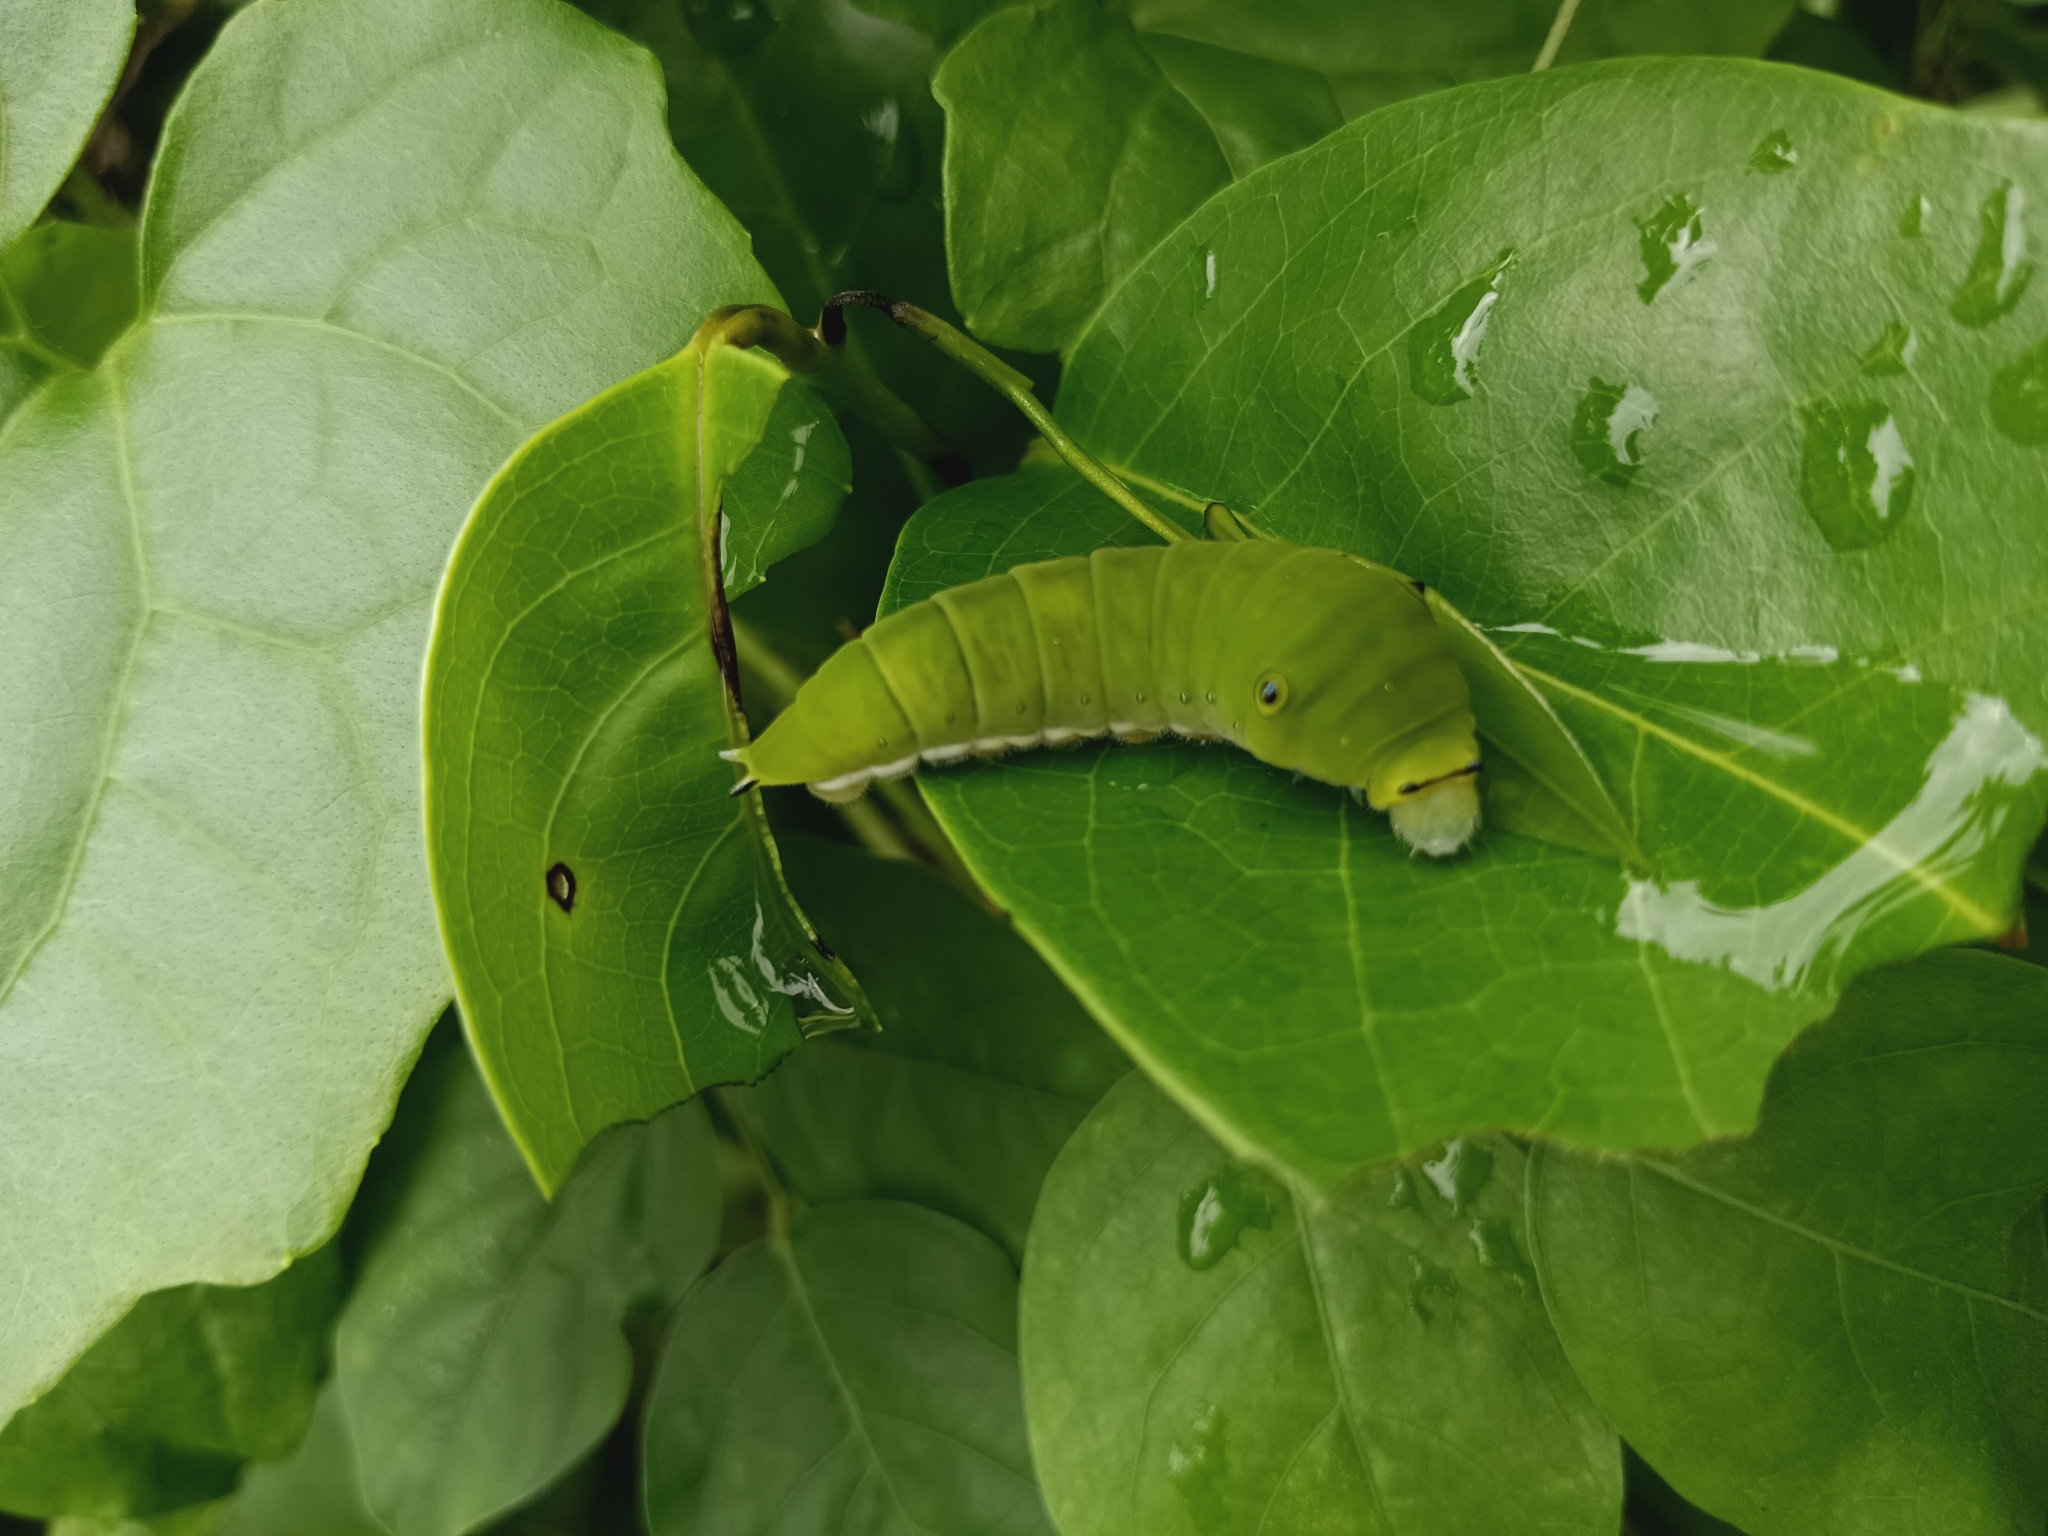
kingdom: Animalia
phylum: Arthropoda
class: Insecta
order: Lepidoptera
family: Papilionidae
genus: Graphium
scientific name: Graphium doson
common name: Common jay
